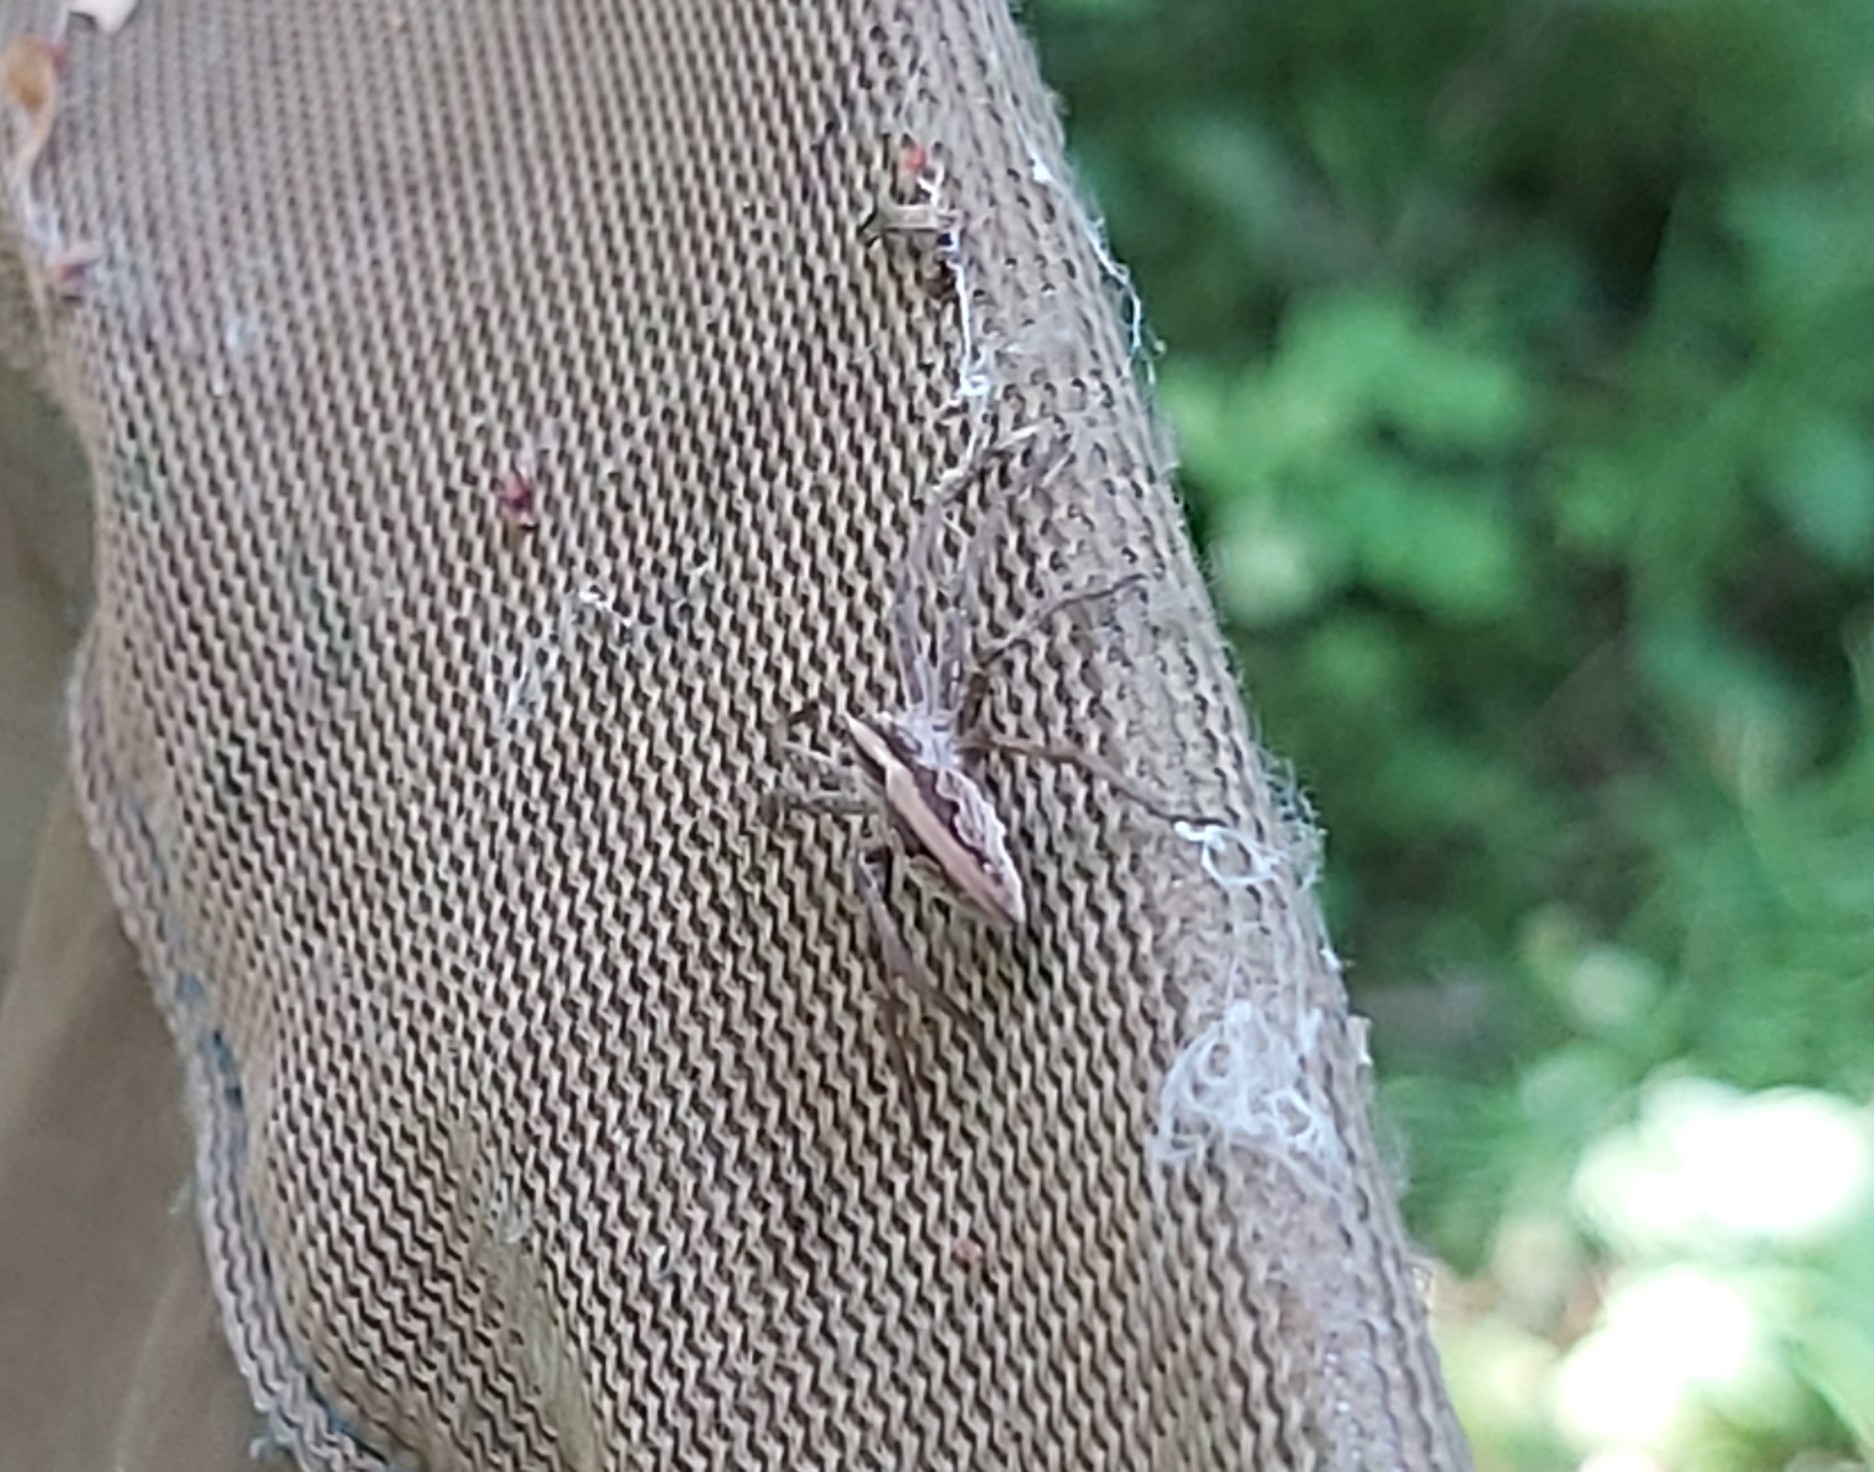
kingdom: Animalia
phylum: Arthropoda
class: Arachnida
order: Araneae
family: Pisauridae
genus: Pisaura
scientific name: Pisaura mirabilis
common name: Tent spider
